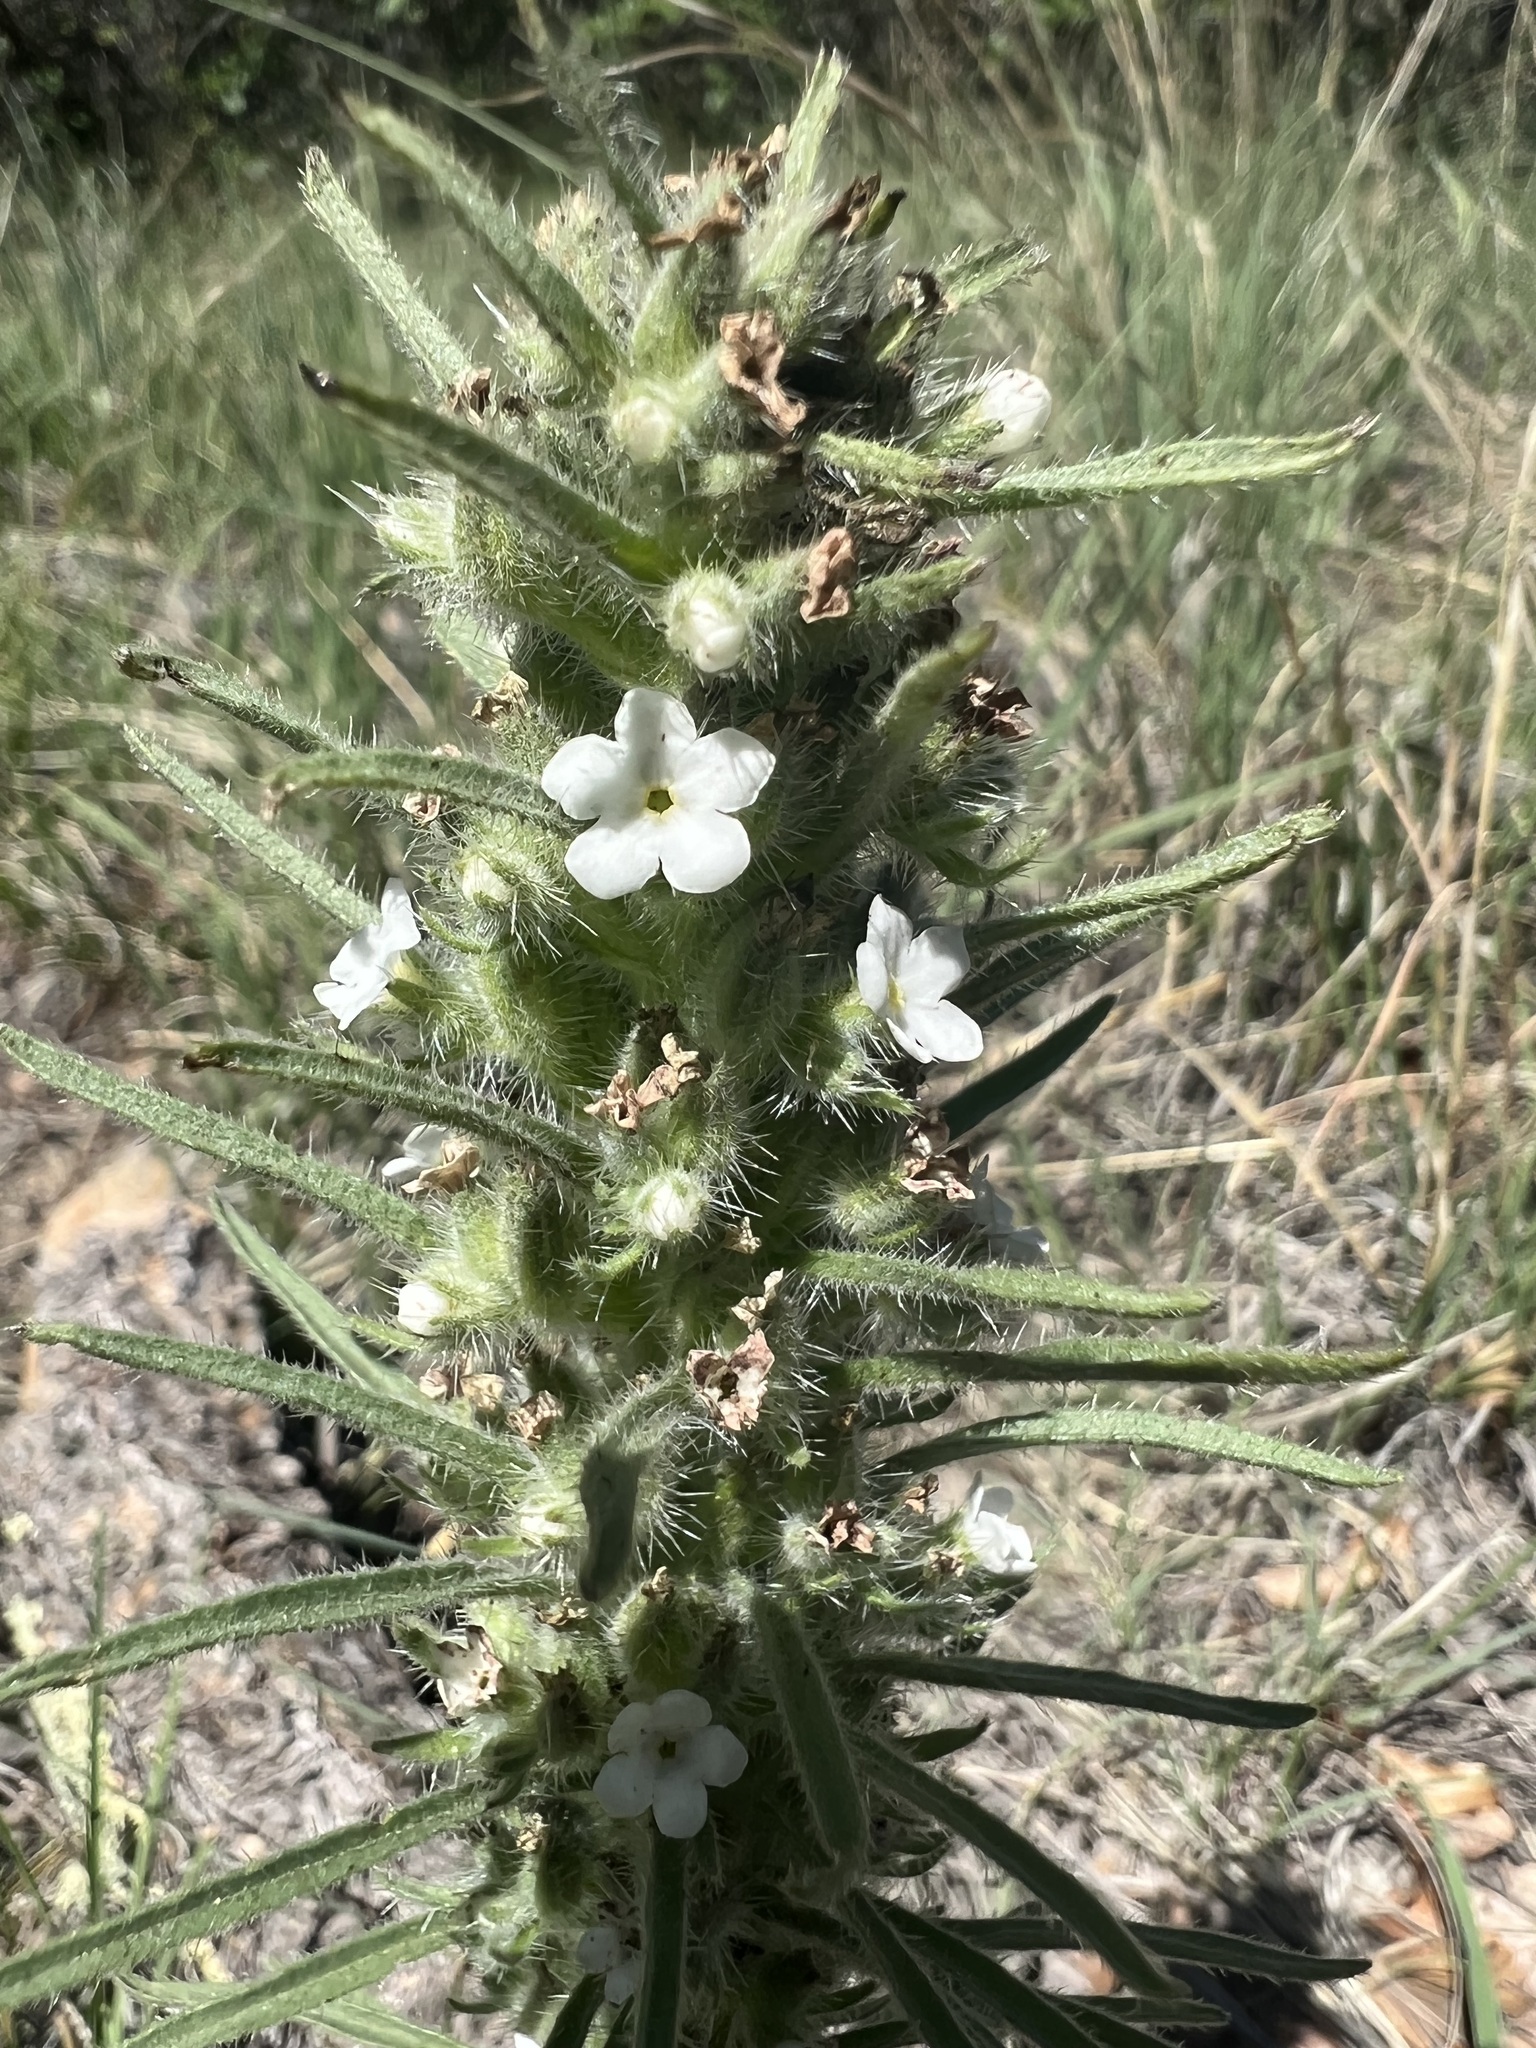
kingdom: Plantae
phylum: Tracheophyta
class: Magnoliopsida
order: Boraginales
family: Boraginaceae
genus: Oreocarya
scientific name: Oreocarya virgata
